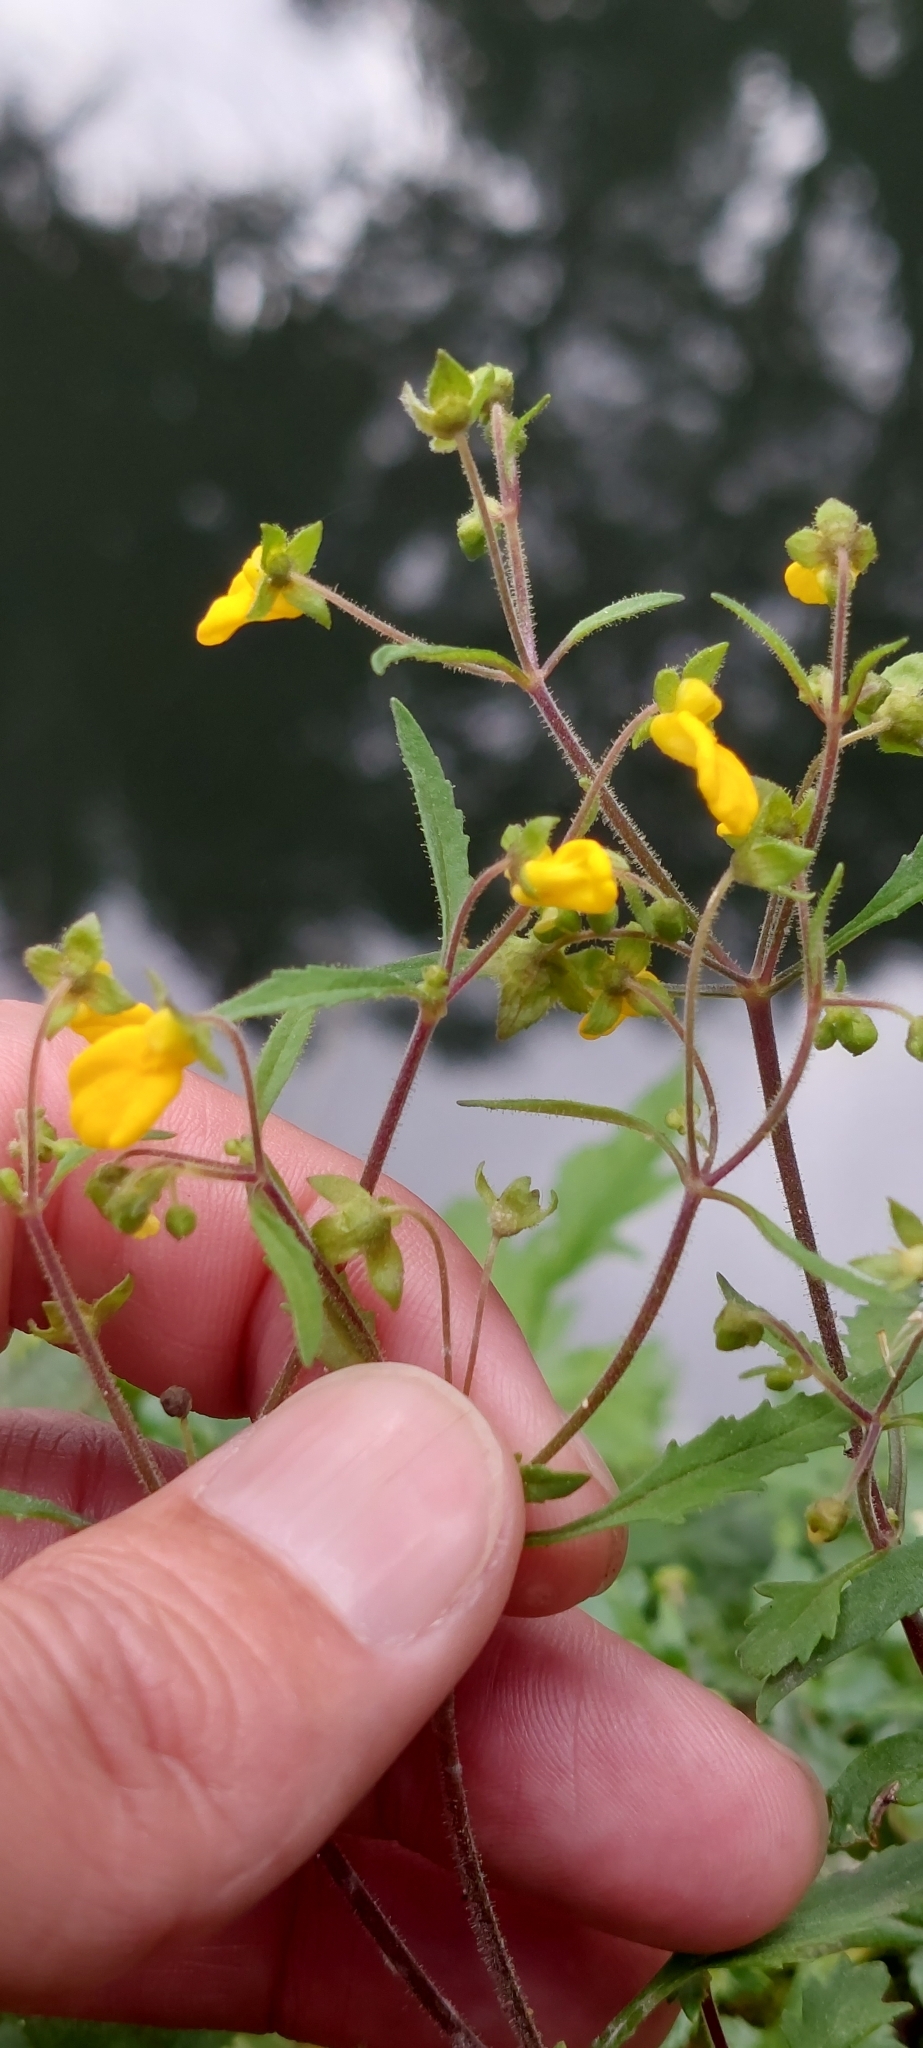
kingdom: Plantae
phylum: Tracheophyta
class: Magnoliopsida
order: Lamiales
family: Calceolariaceae
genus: Calceolaria
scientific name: Calceolaria mexicana
